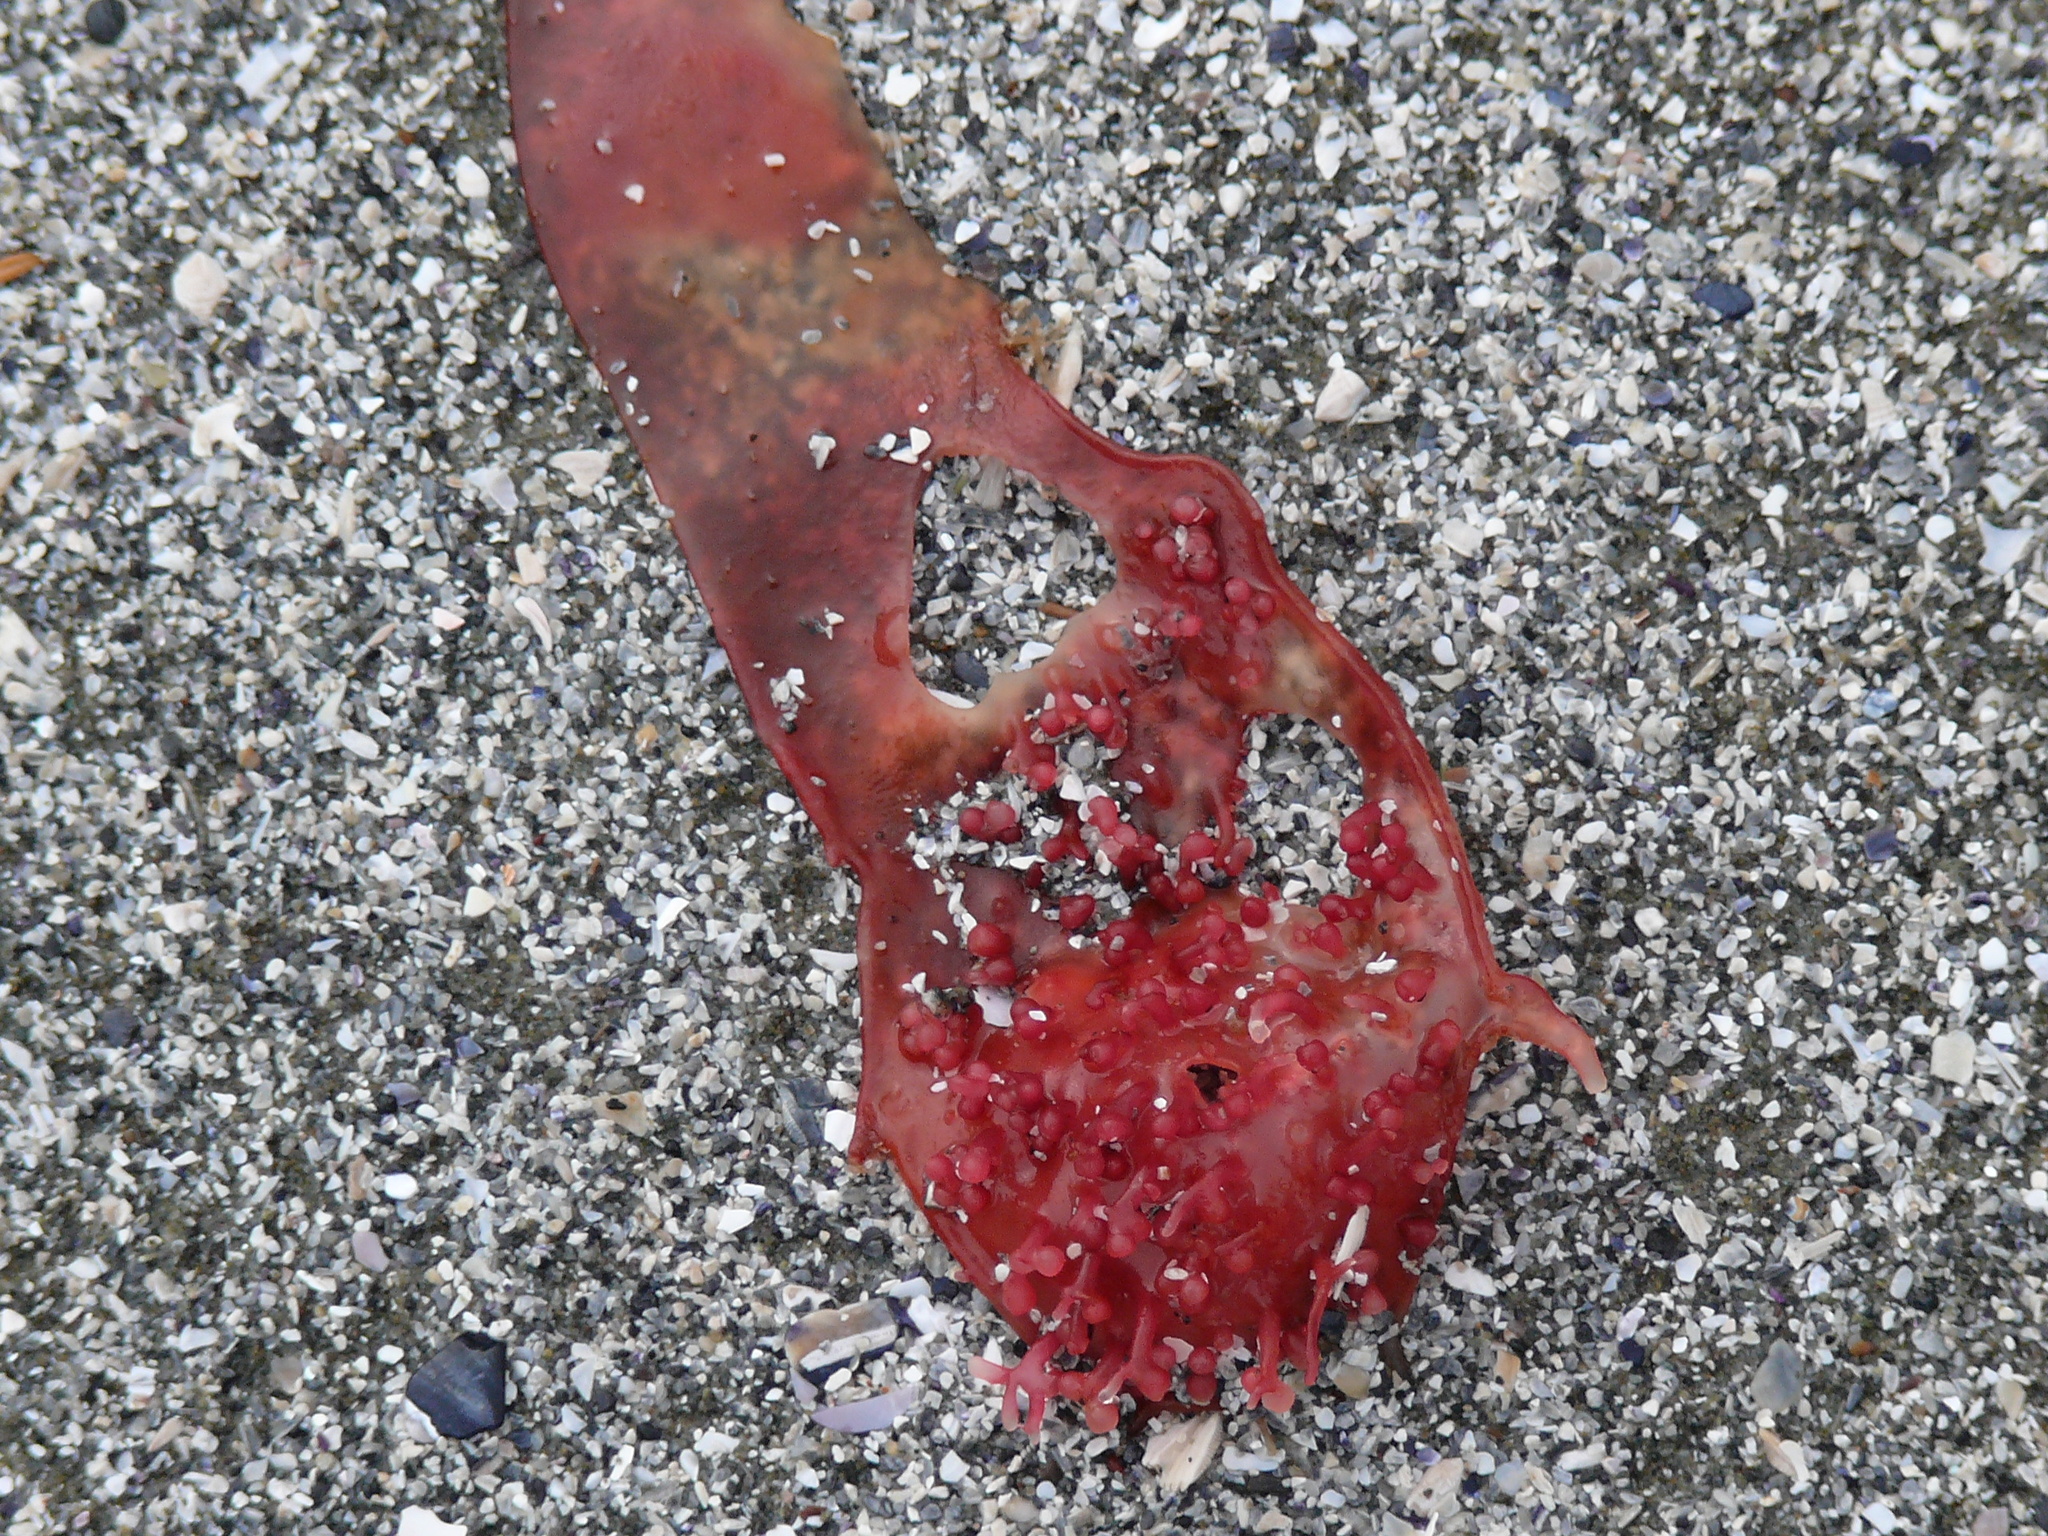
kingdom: Plantae
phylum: Rhodophyta
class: Florideophyceae
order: Gigartinales
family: Gigartinaceae
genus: Chondracanthus
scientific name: Chondracanthus exasperatus
